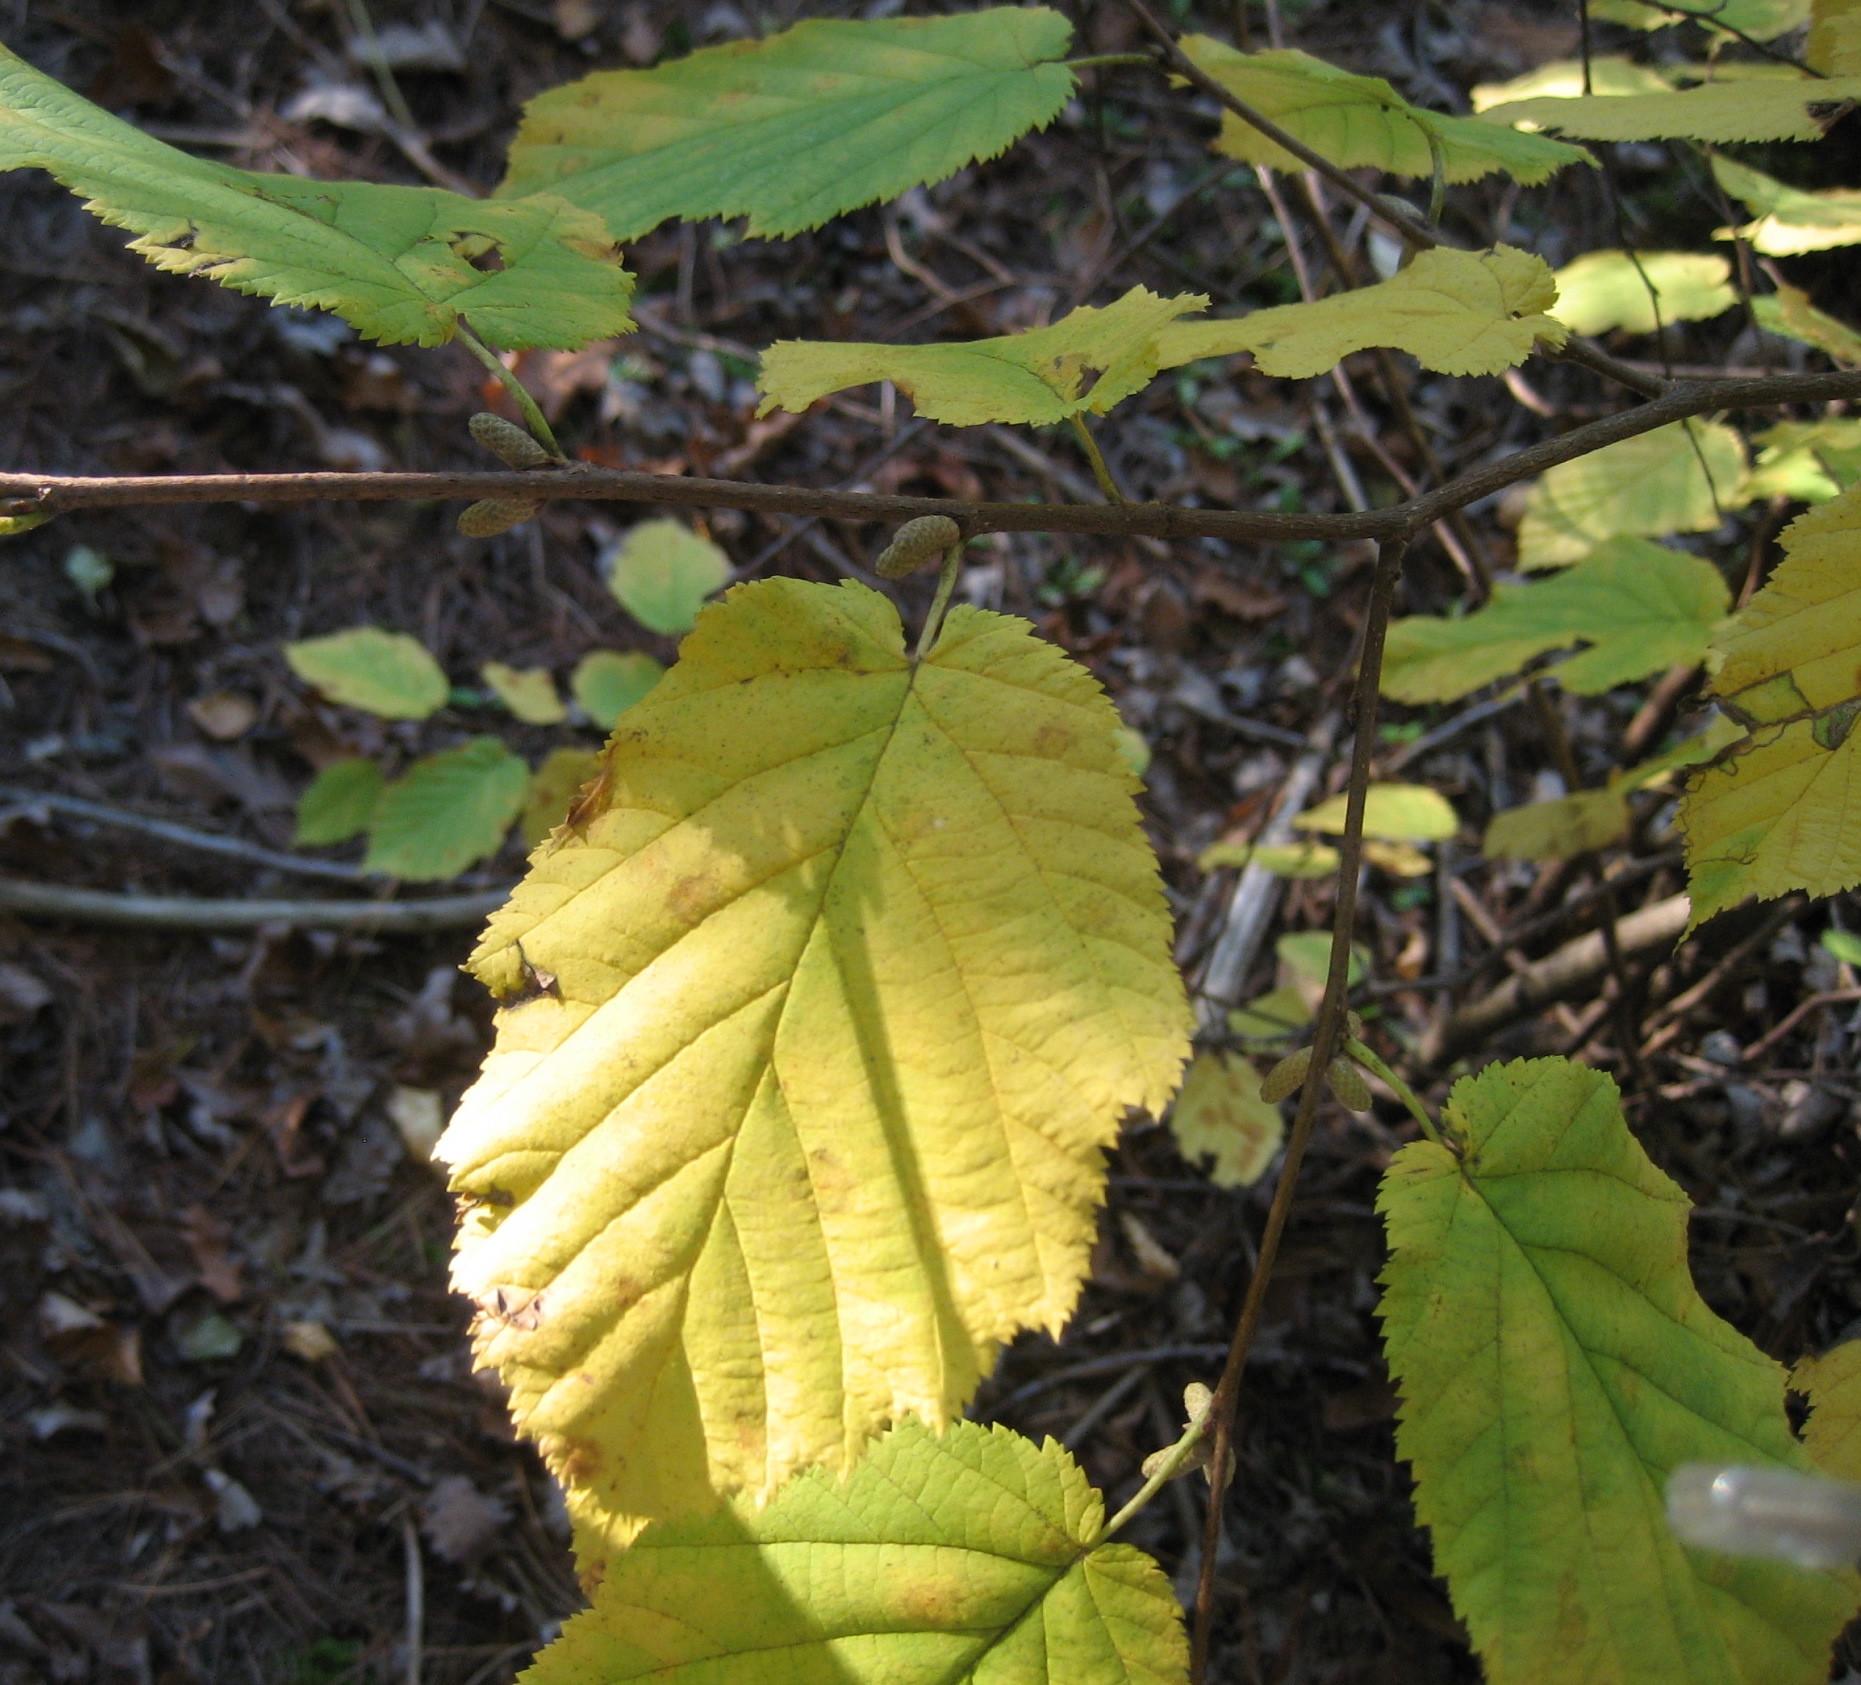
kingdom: Plantae
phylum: Tracheophyta
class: Magnoliopsida
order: Fagales
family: Betulaceae
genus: Corylus
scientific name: Corylus cornuta
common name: Beaked hazel
